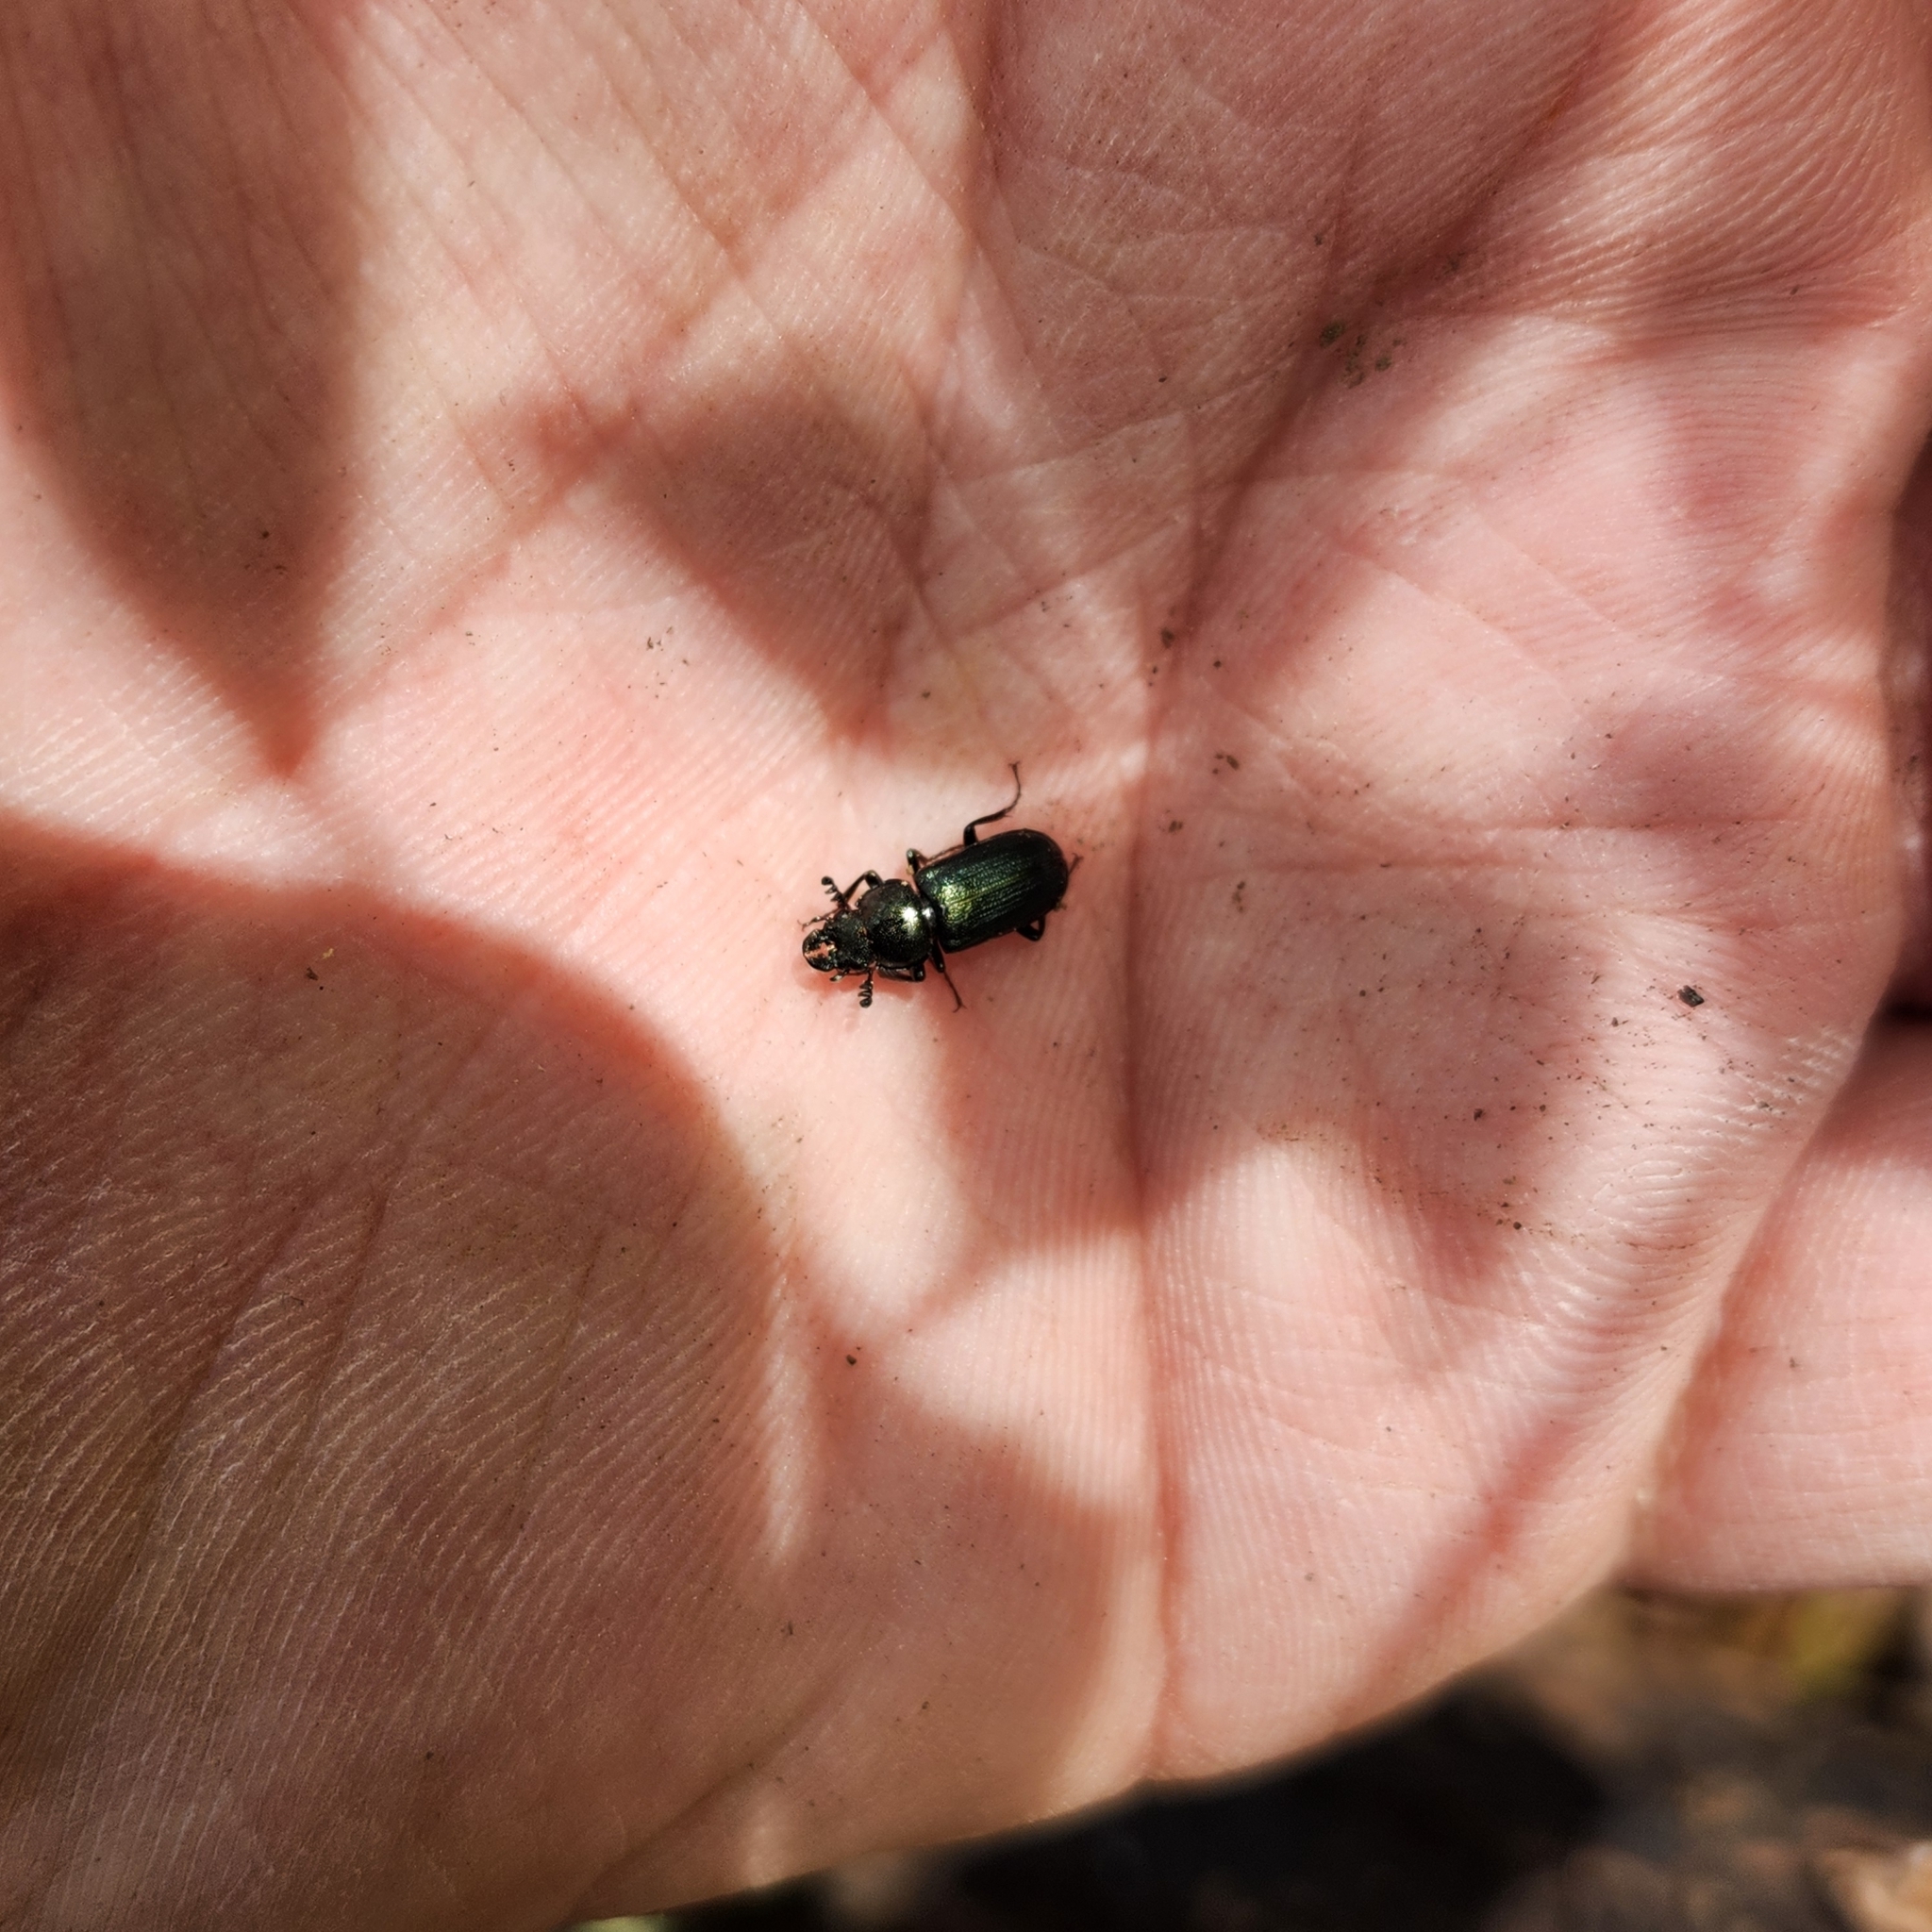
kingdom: Animalia
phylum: Arthropoda
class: Insecta
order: Coleoptera
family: Lucanidae
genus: Platycerus
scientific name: Platycerus quercus
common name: Oak stag beetle
